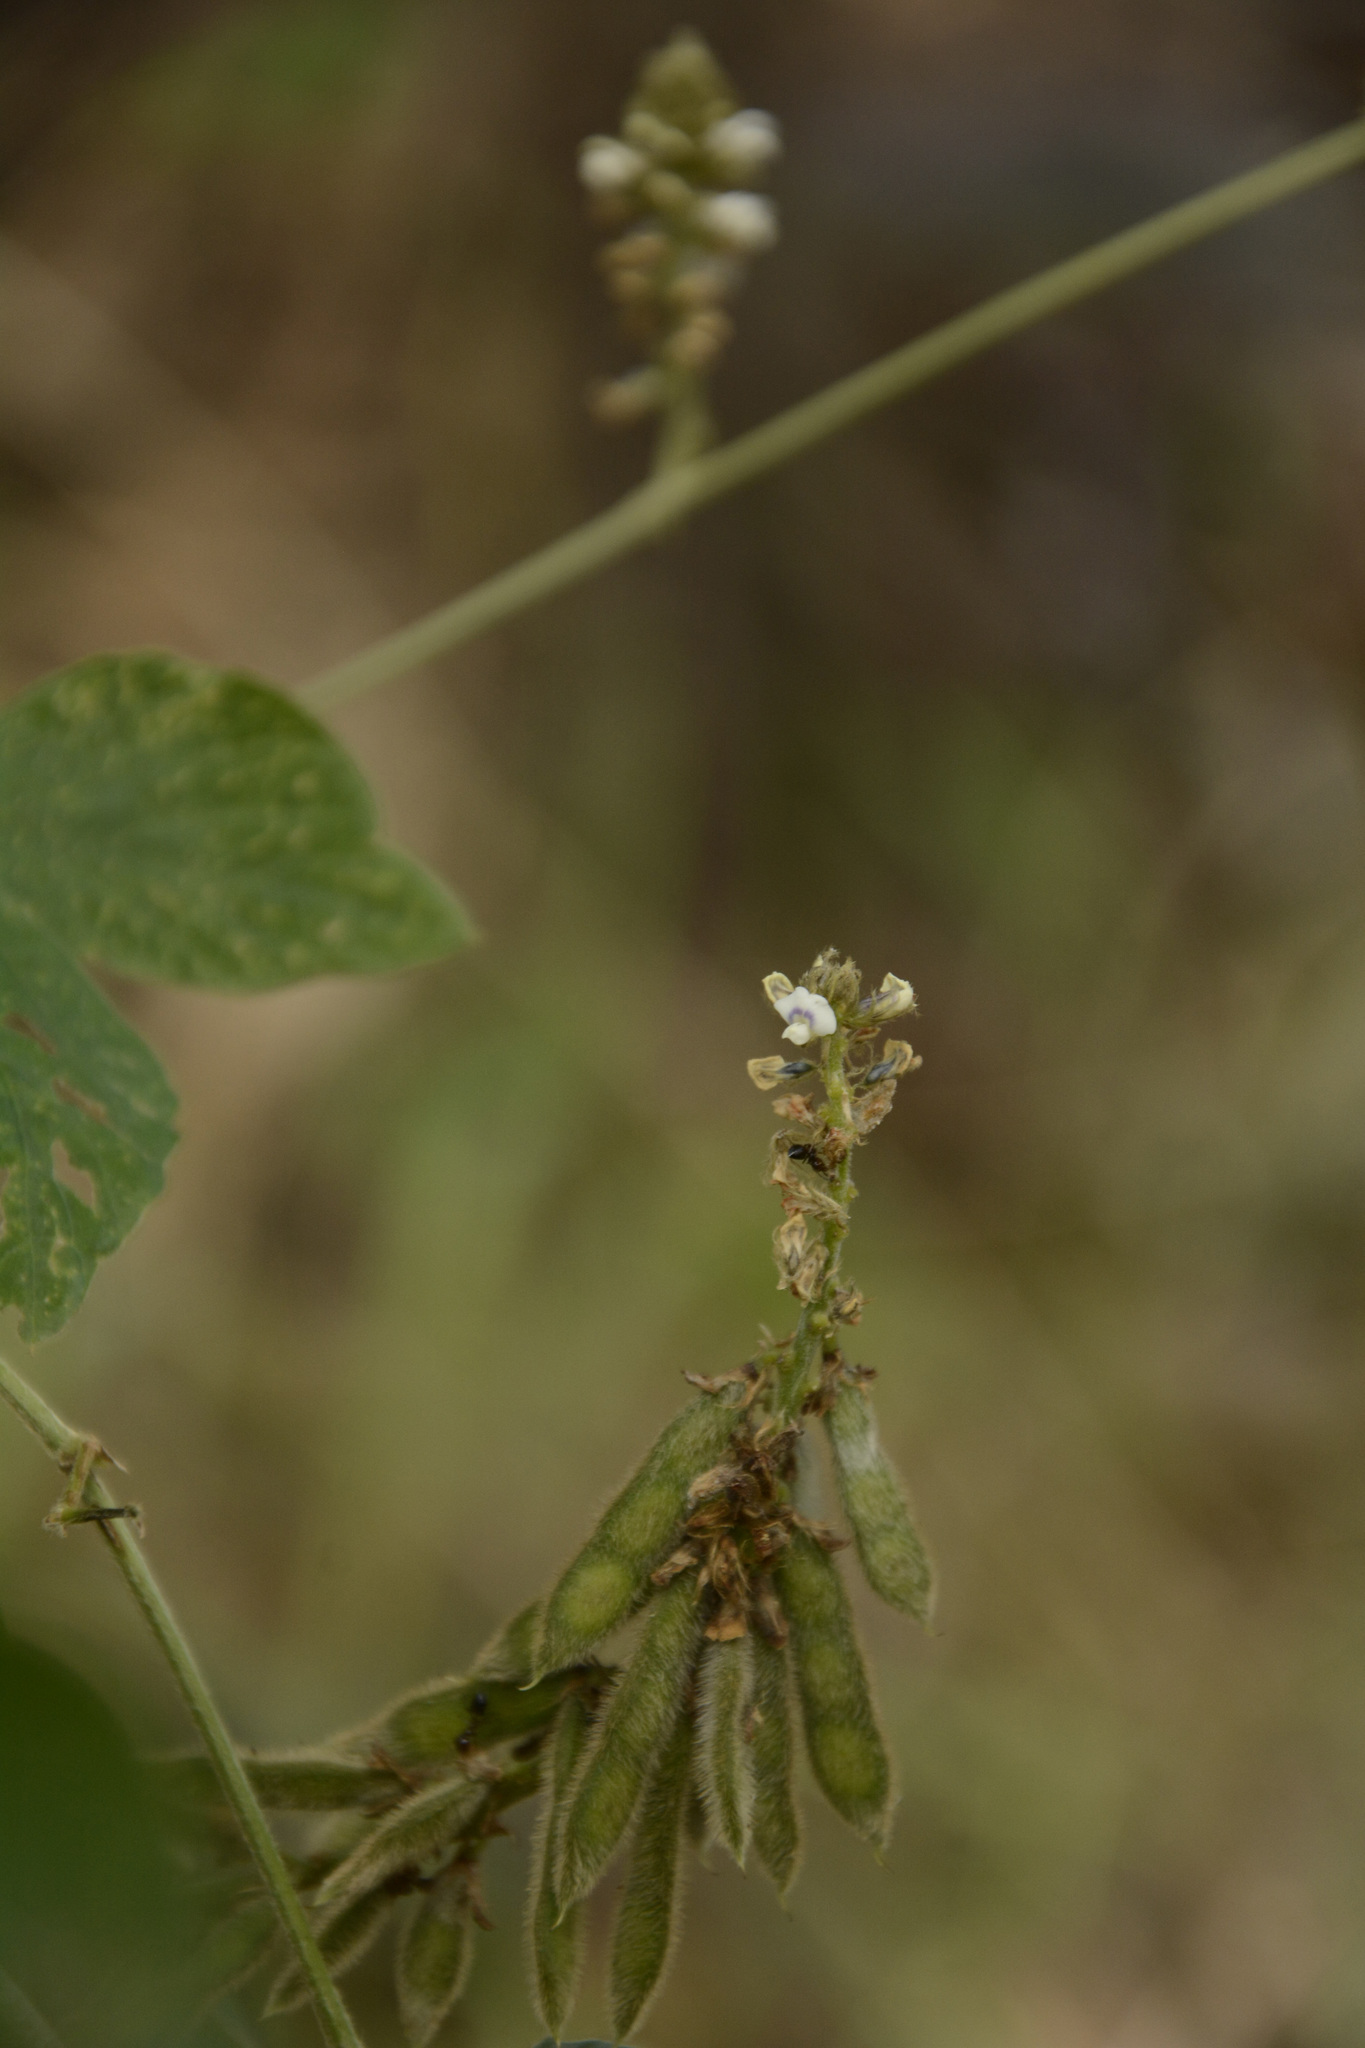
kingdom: Plantae
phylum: Tracheophyta
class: Magnoliopsida
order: Fabales
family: Fabaceae
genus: Neonotonia
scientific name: Neonotonia wightii
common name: Perennial soybean
